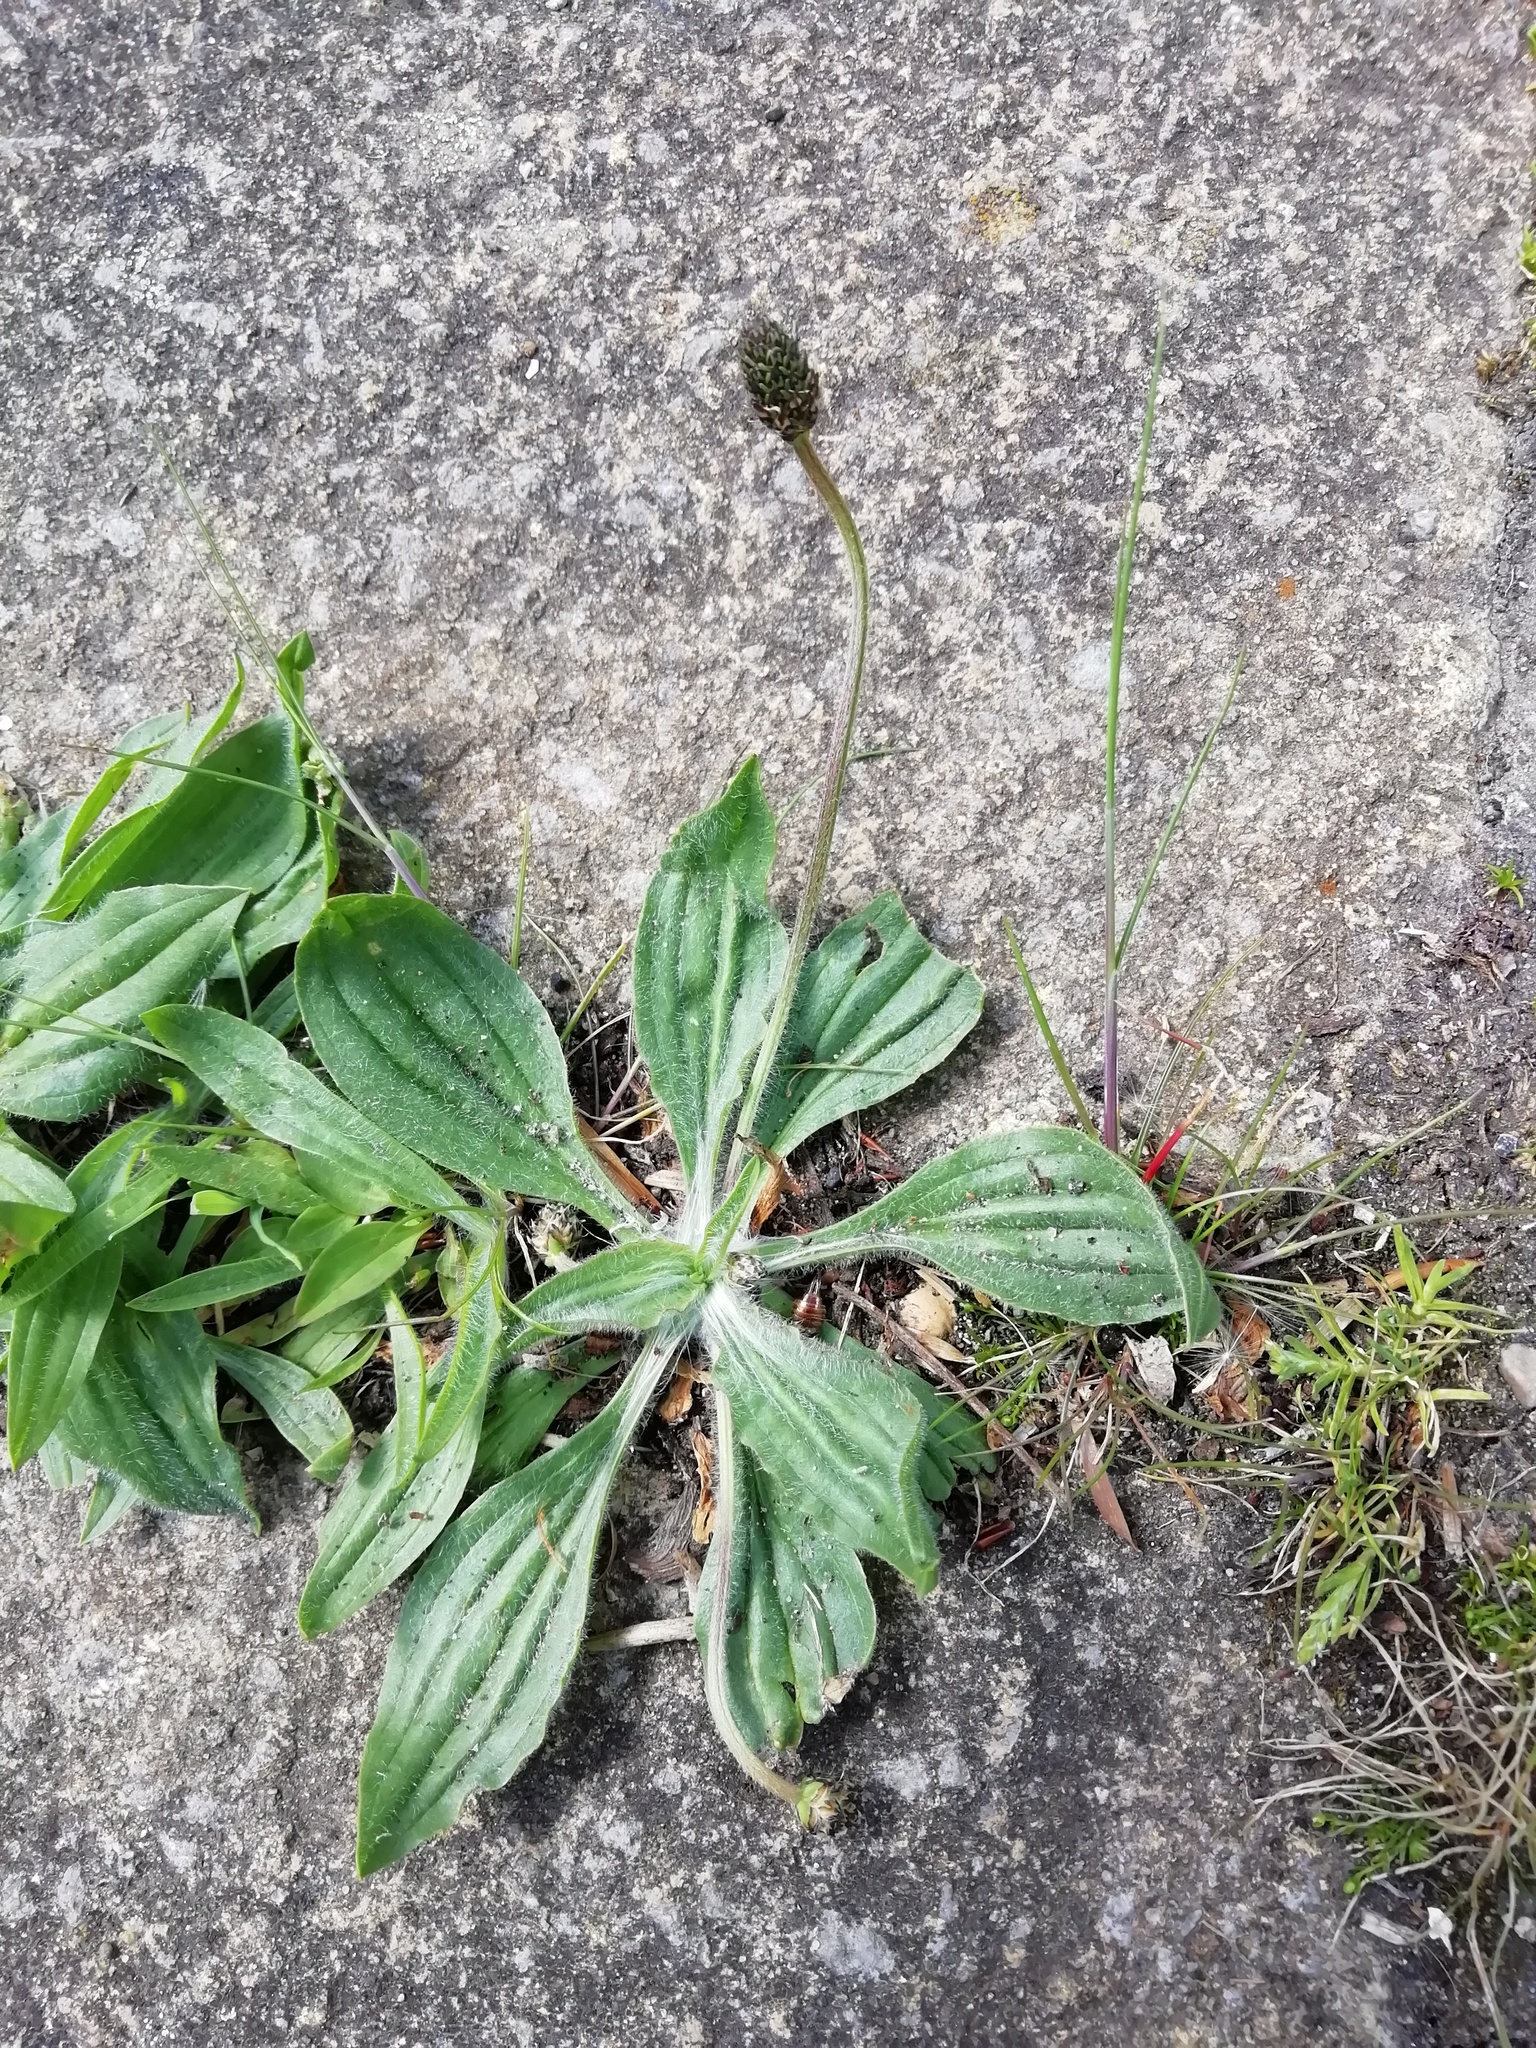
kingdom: Plantae
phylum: Tracheophyta
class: Magnoliopsida
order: Lamiales
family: Plantaginaceae
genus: Plantago
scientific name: Plantago lanceolata
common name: Ribwort plantain
